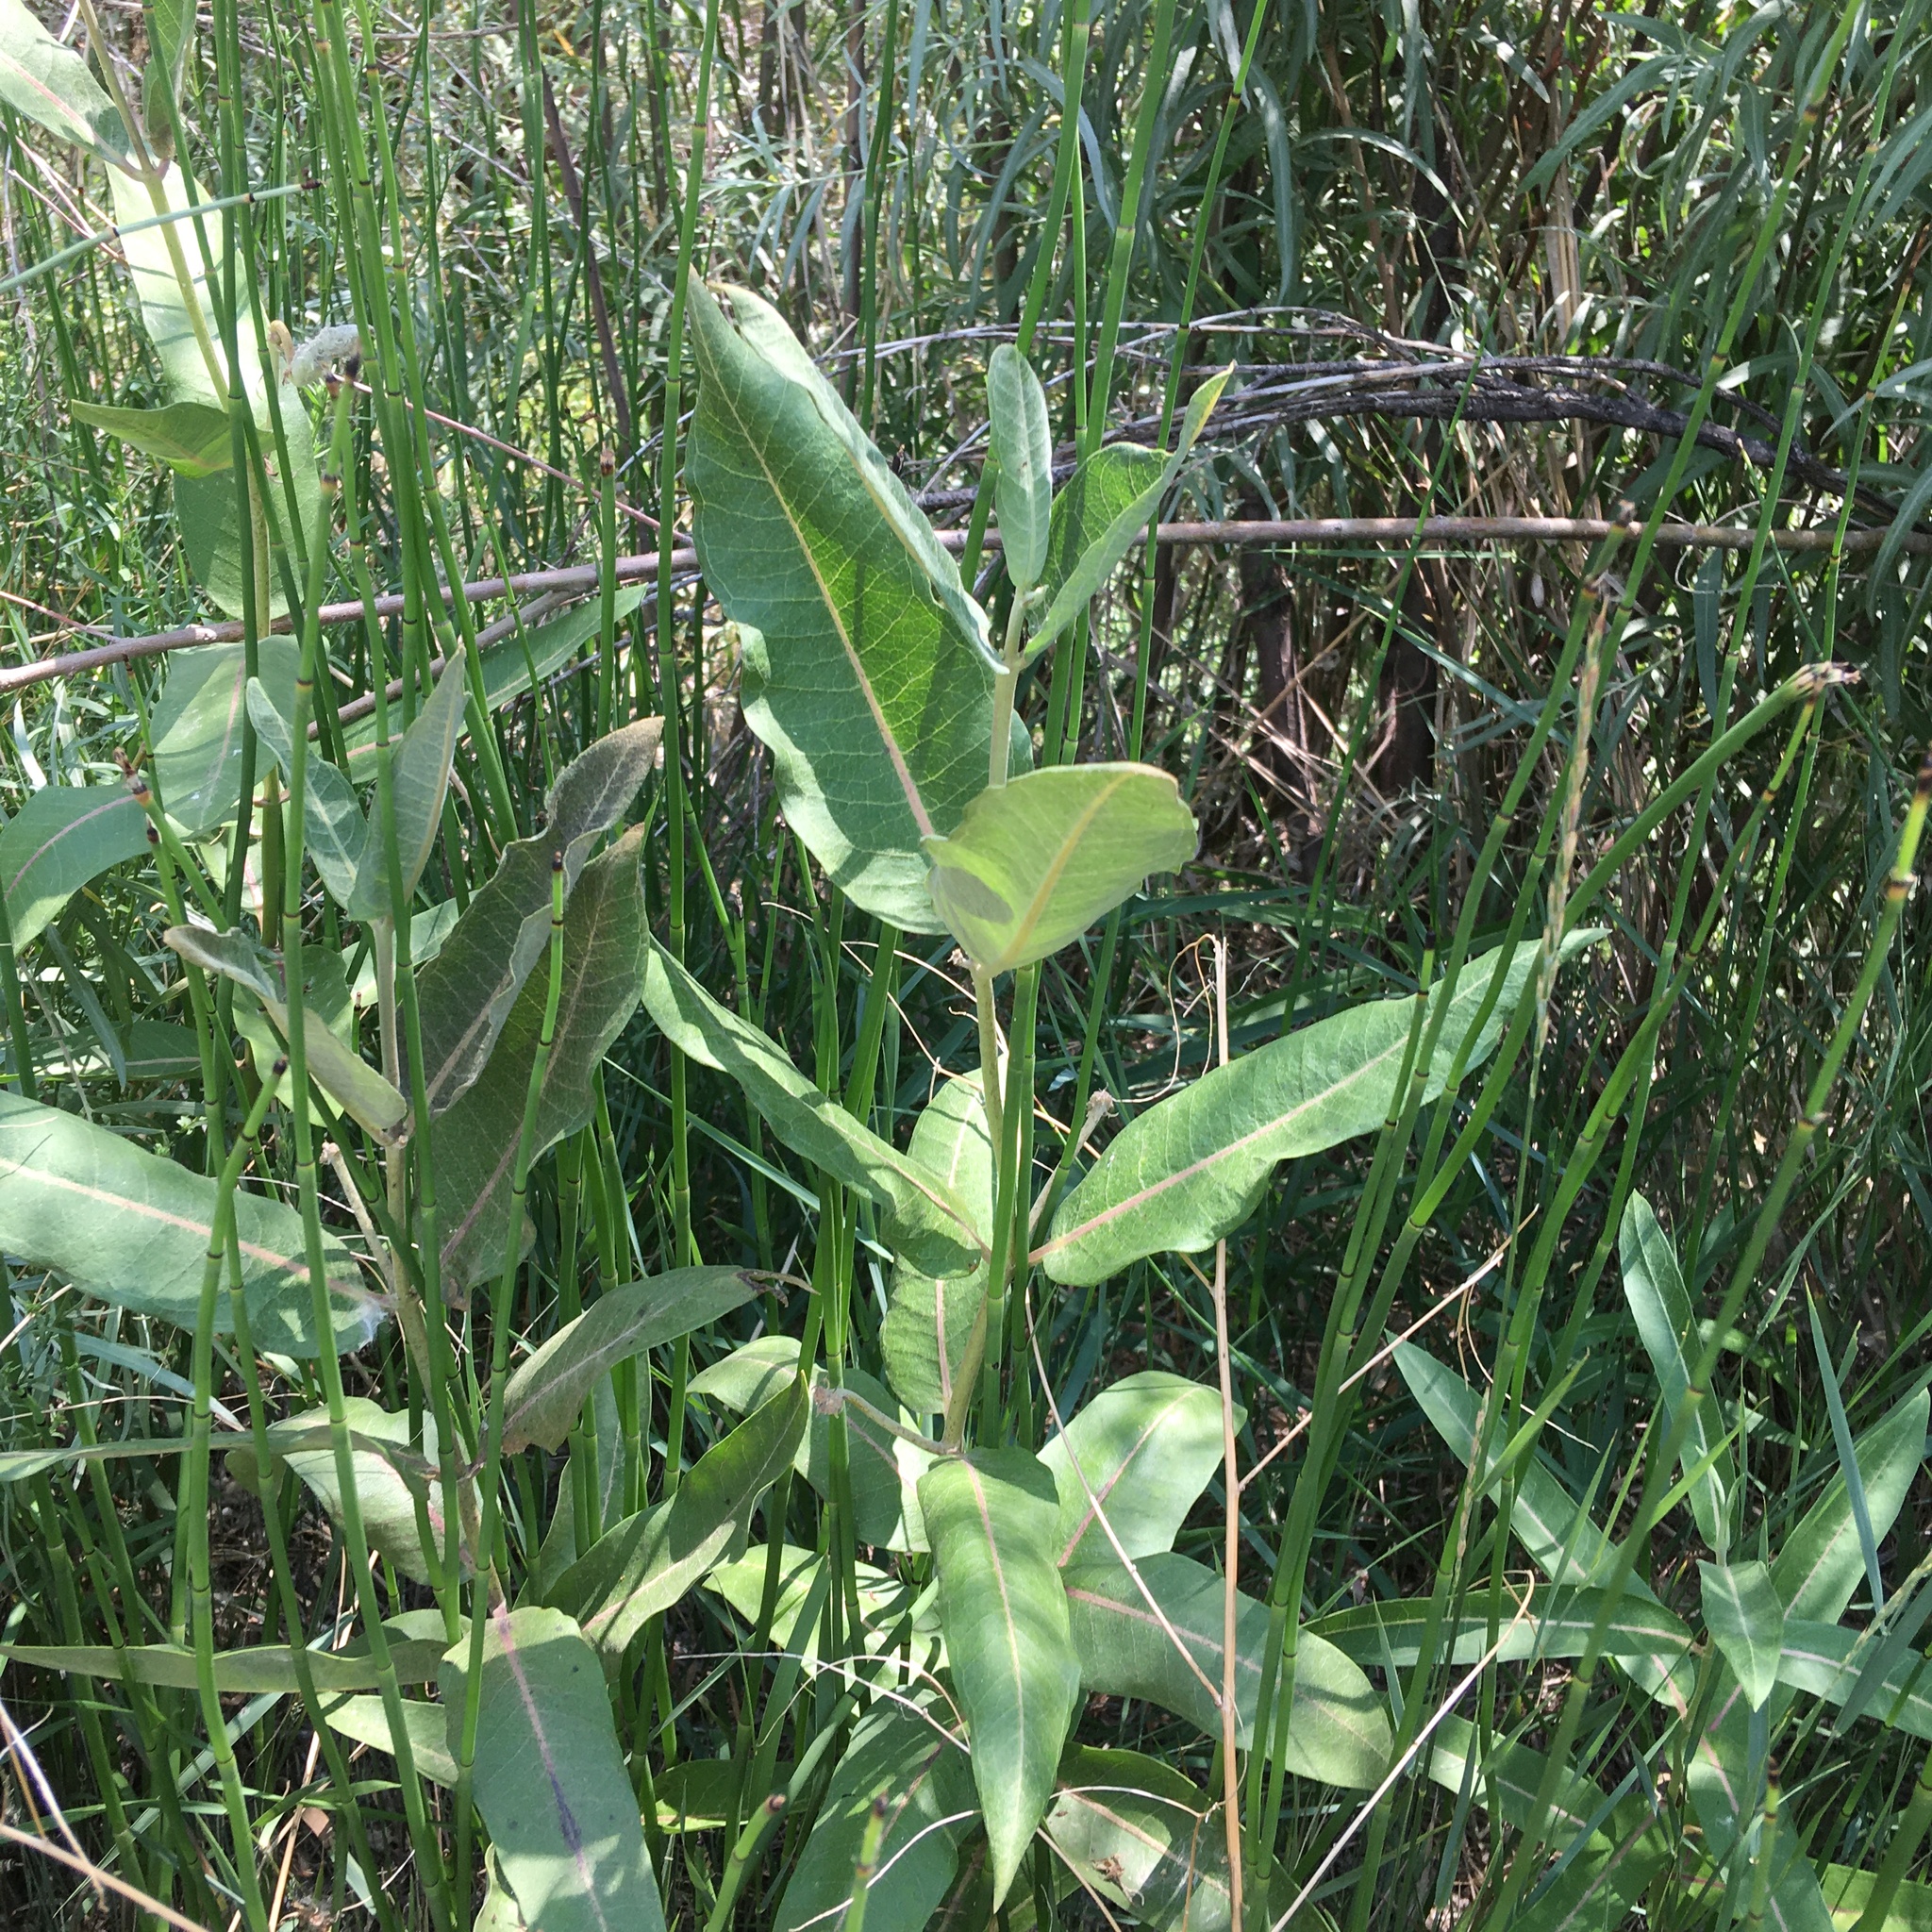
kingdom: Plantae
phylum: Tracheophyta
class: Magnoliopsida
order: Gentianales
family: Apocynaceae
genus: Asclepias
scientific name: Asclepias speciosa
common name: Showy milkweed
